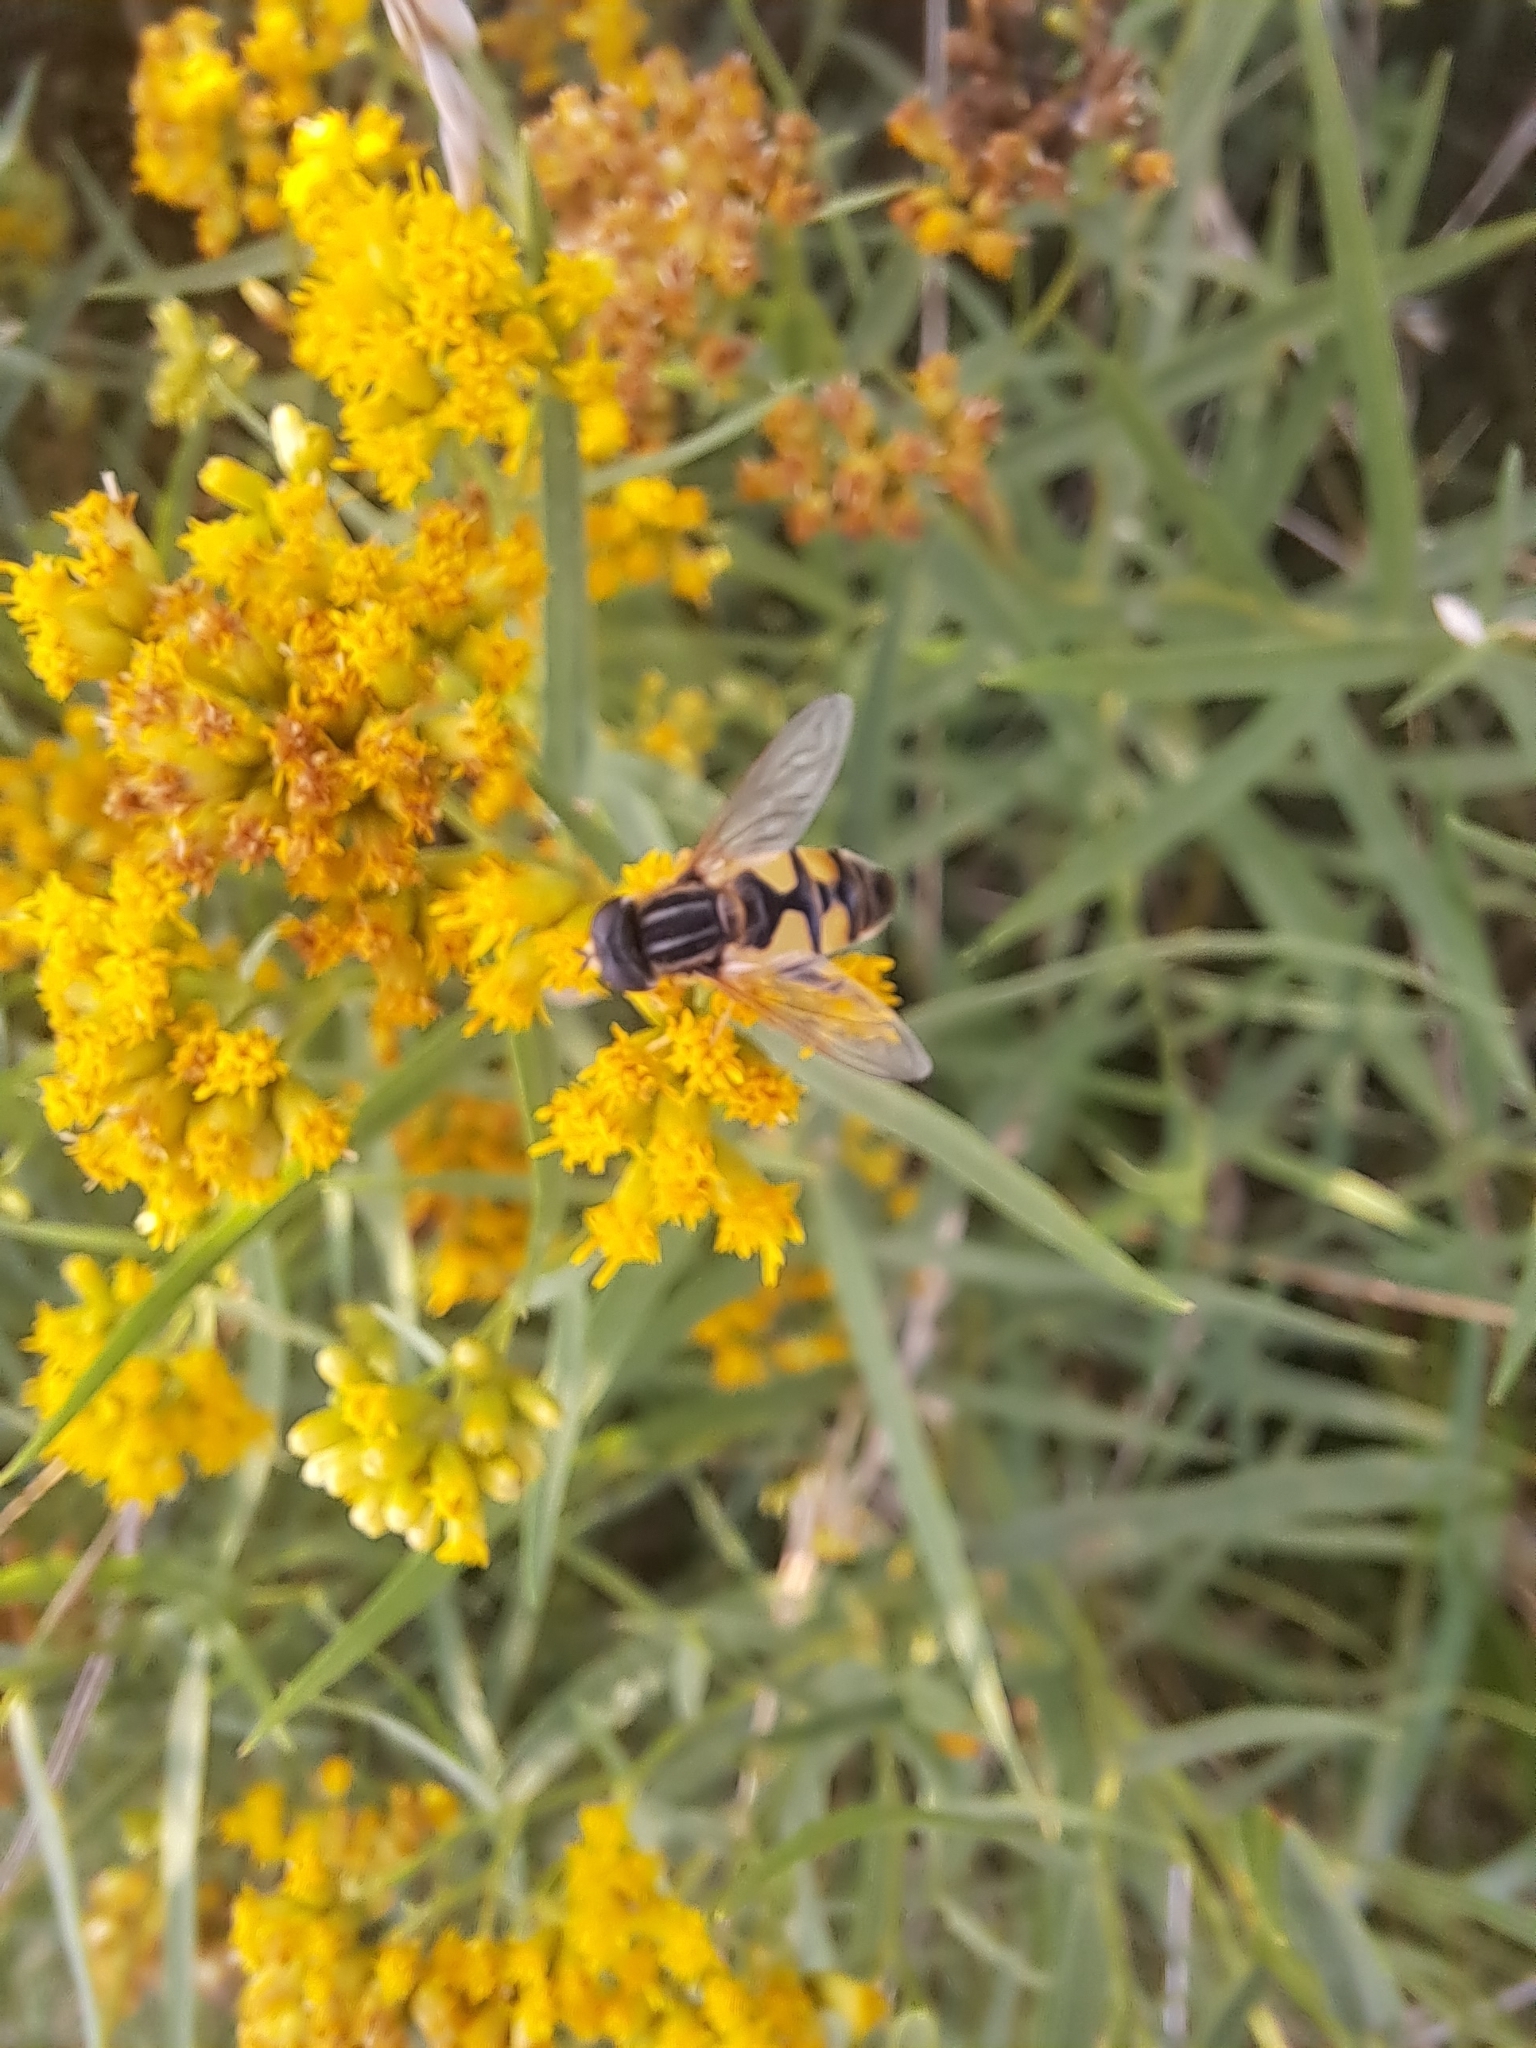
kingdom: Animalia
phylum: Arthropoda
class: Insecta
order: Diptera
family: Syrphidae
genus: Helophilus
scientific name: Helophilus latifrons
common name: Broad-headed marsh fly
